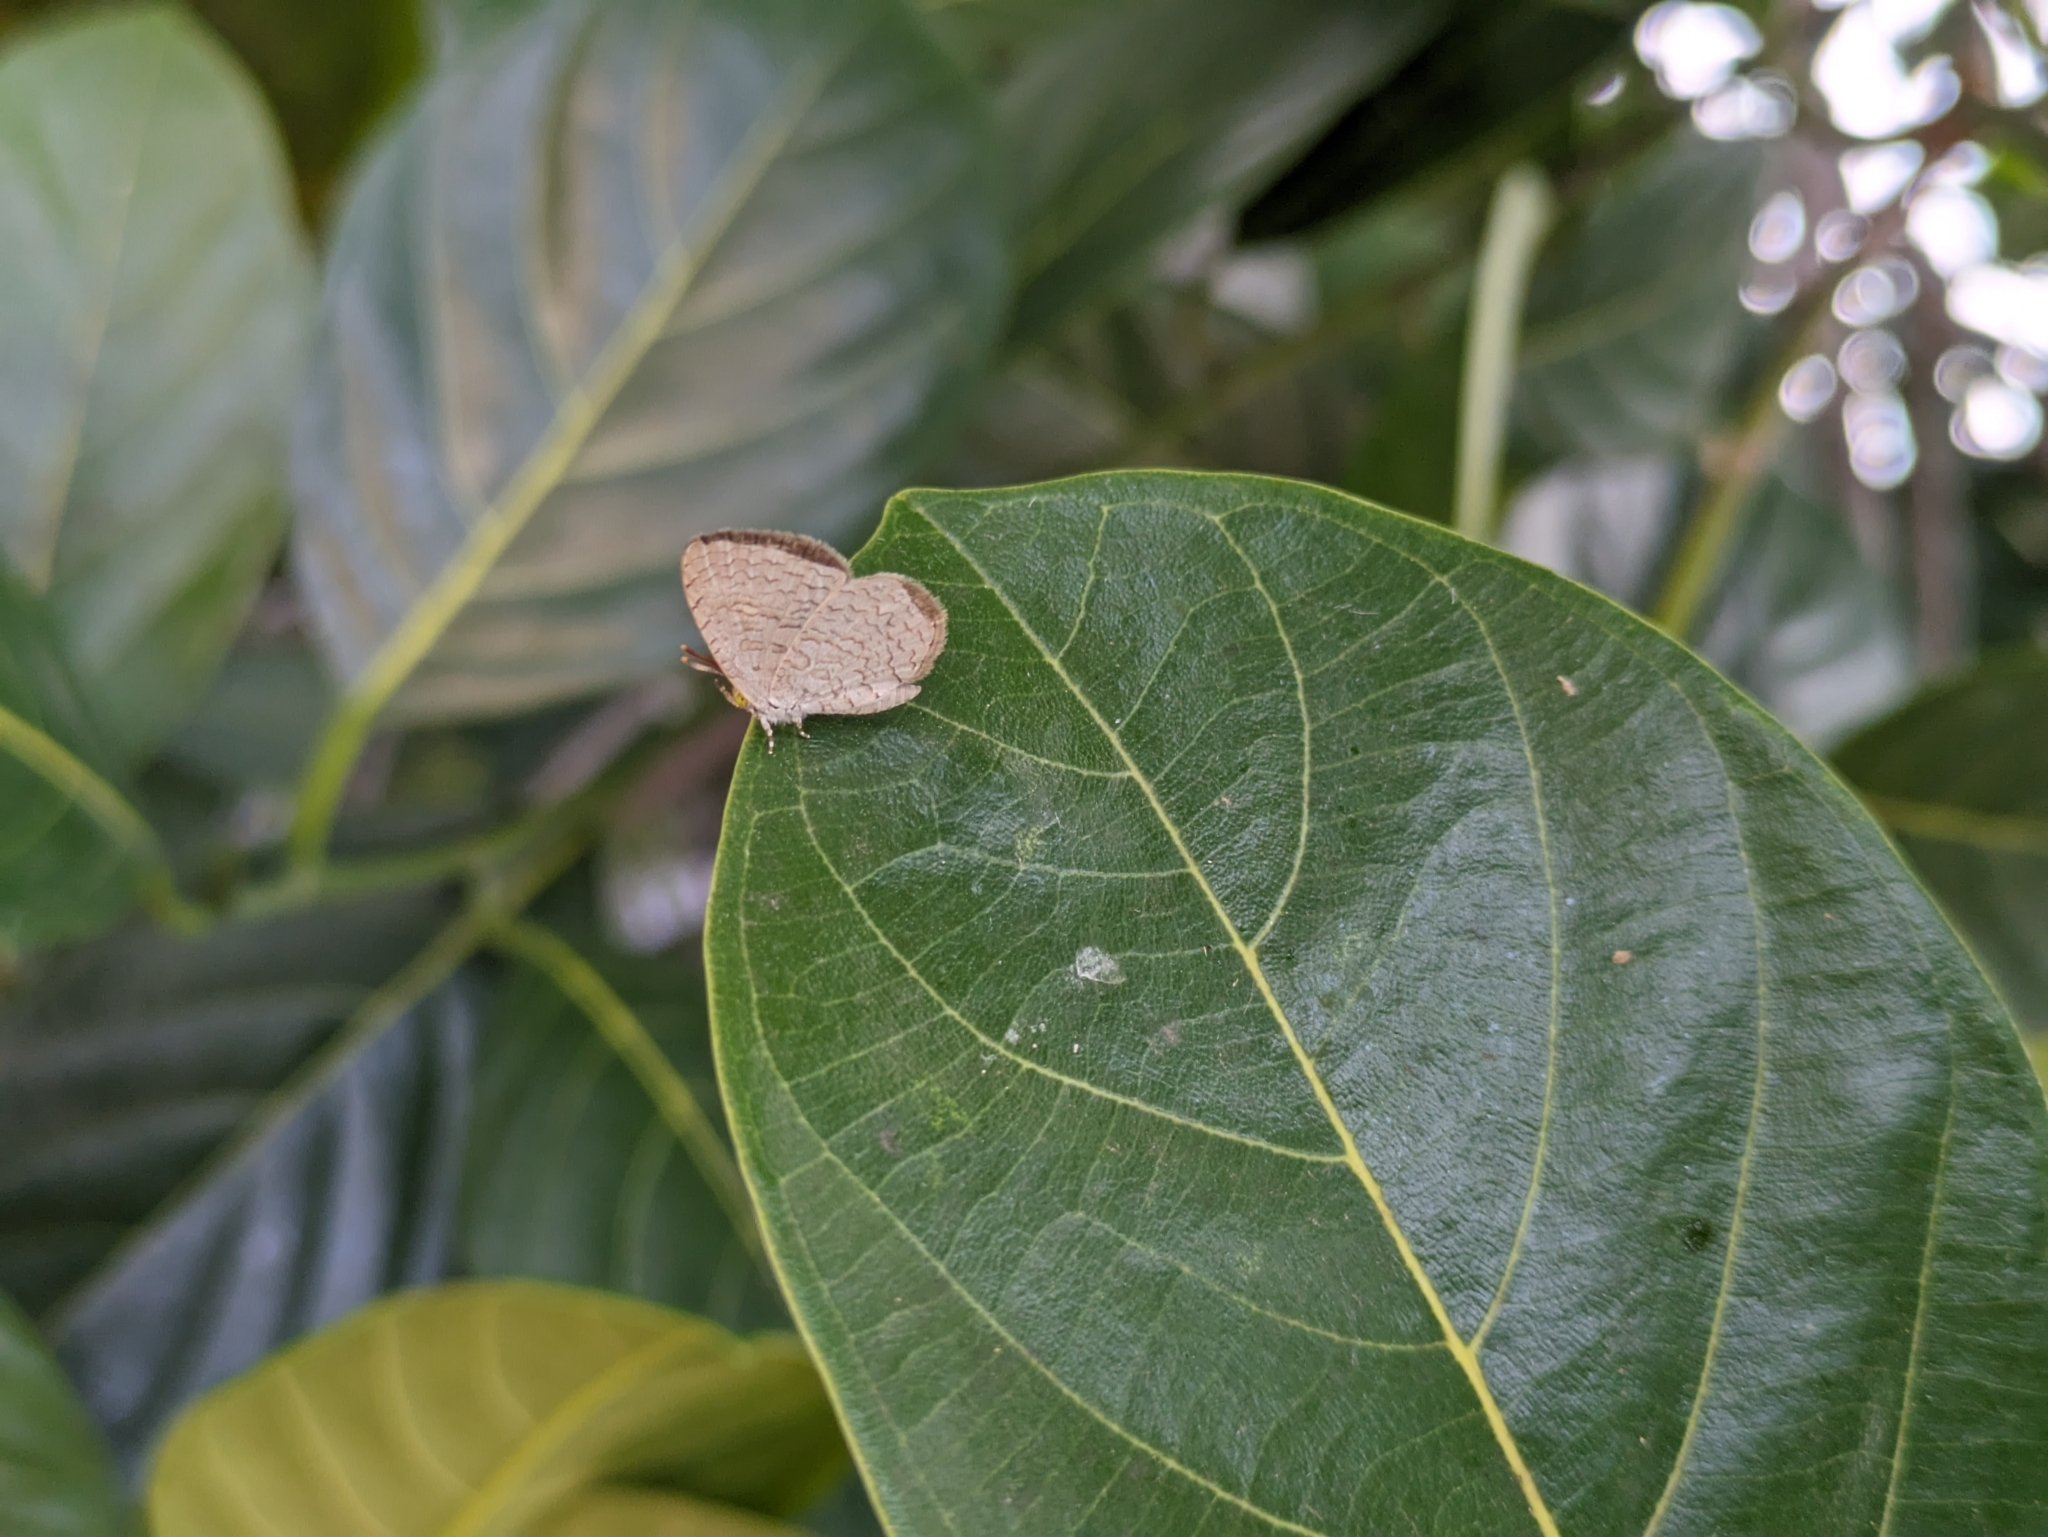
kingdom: Animalia
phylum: Arthropoda
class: Insecta
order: Lepidoptera
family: Lycaenidae
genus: Spalgis
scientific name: Spalgis epius
